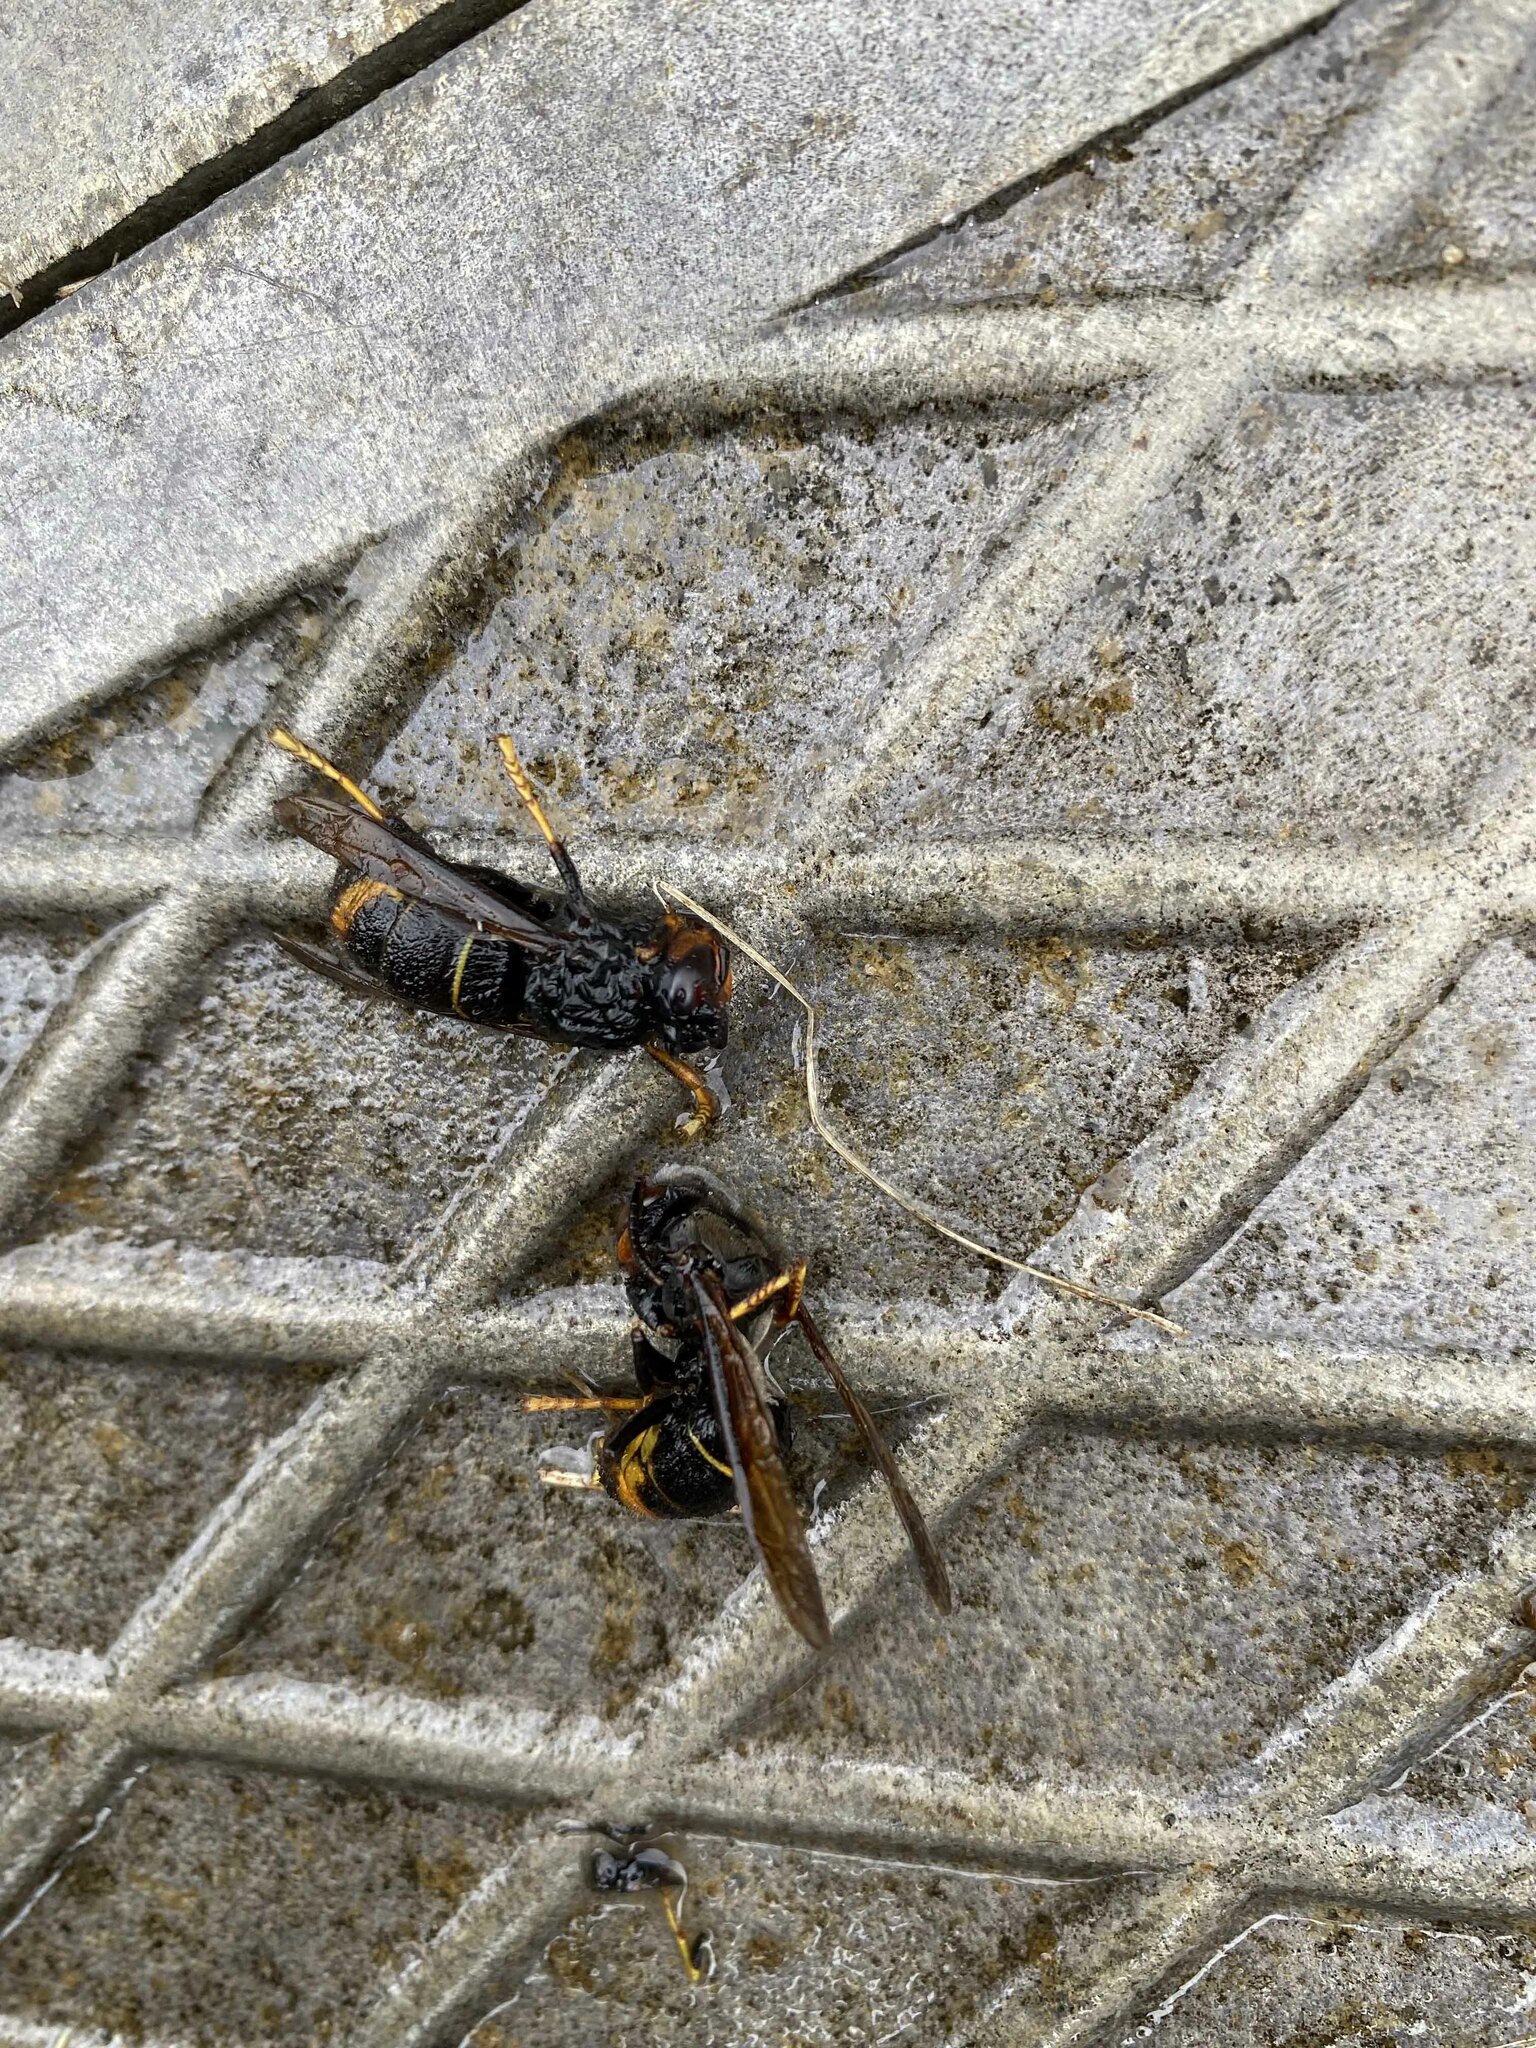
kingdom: Animalia
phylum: Arthropoda
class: Insecta
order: Hymenoptera
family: Vespidae
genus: Vespa
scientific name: Vespa velutina
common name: Asian hornet
